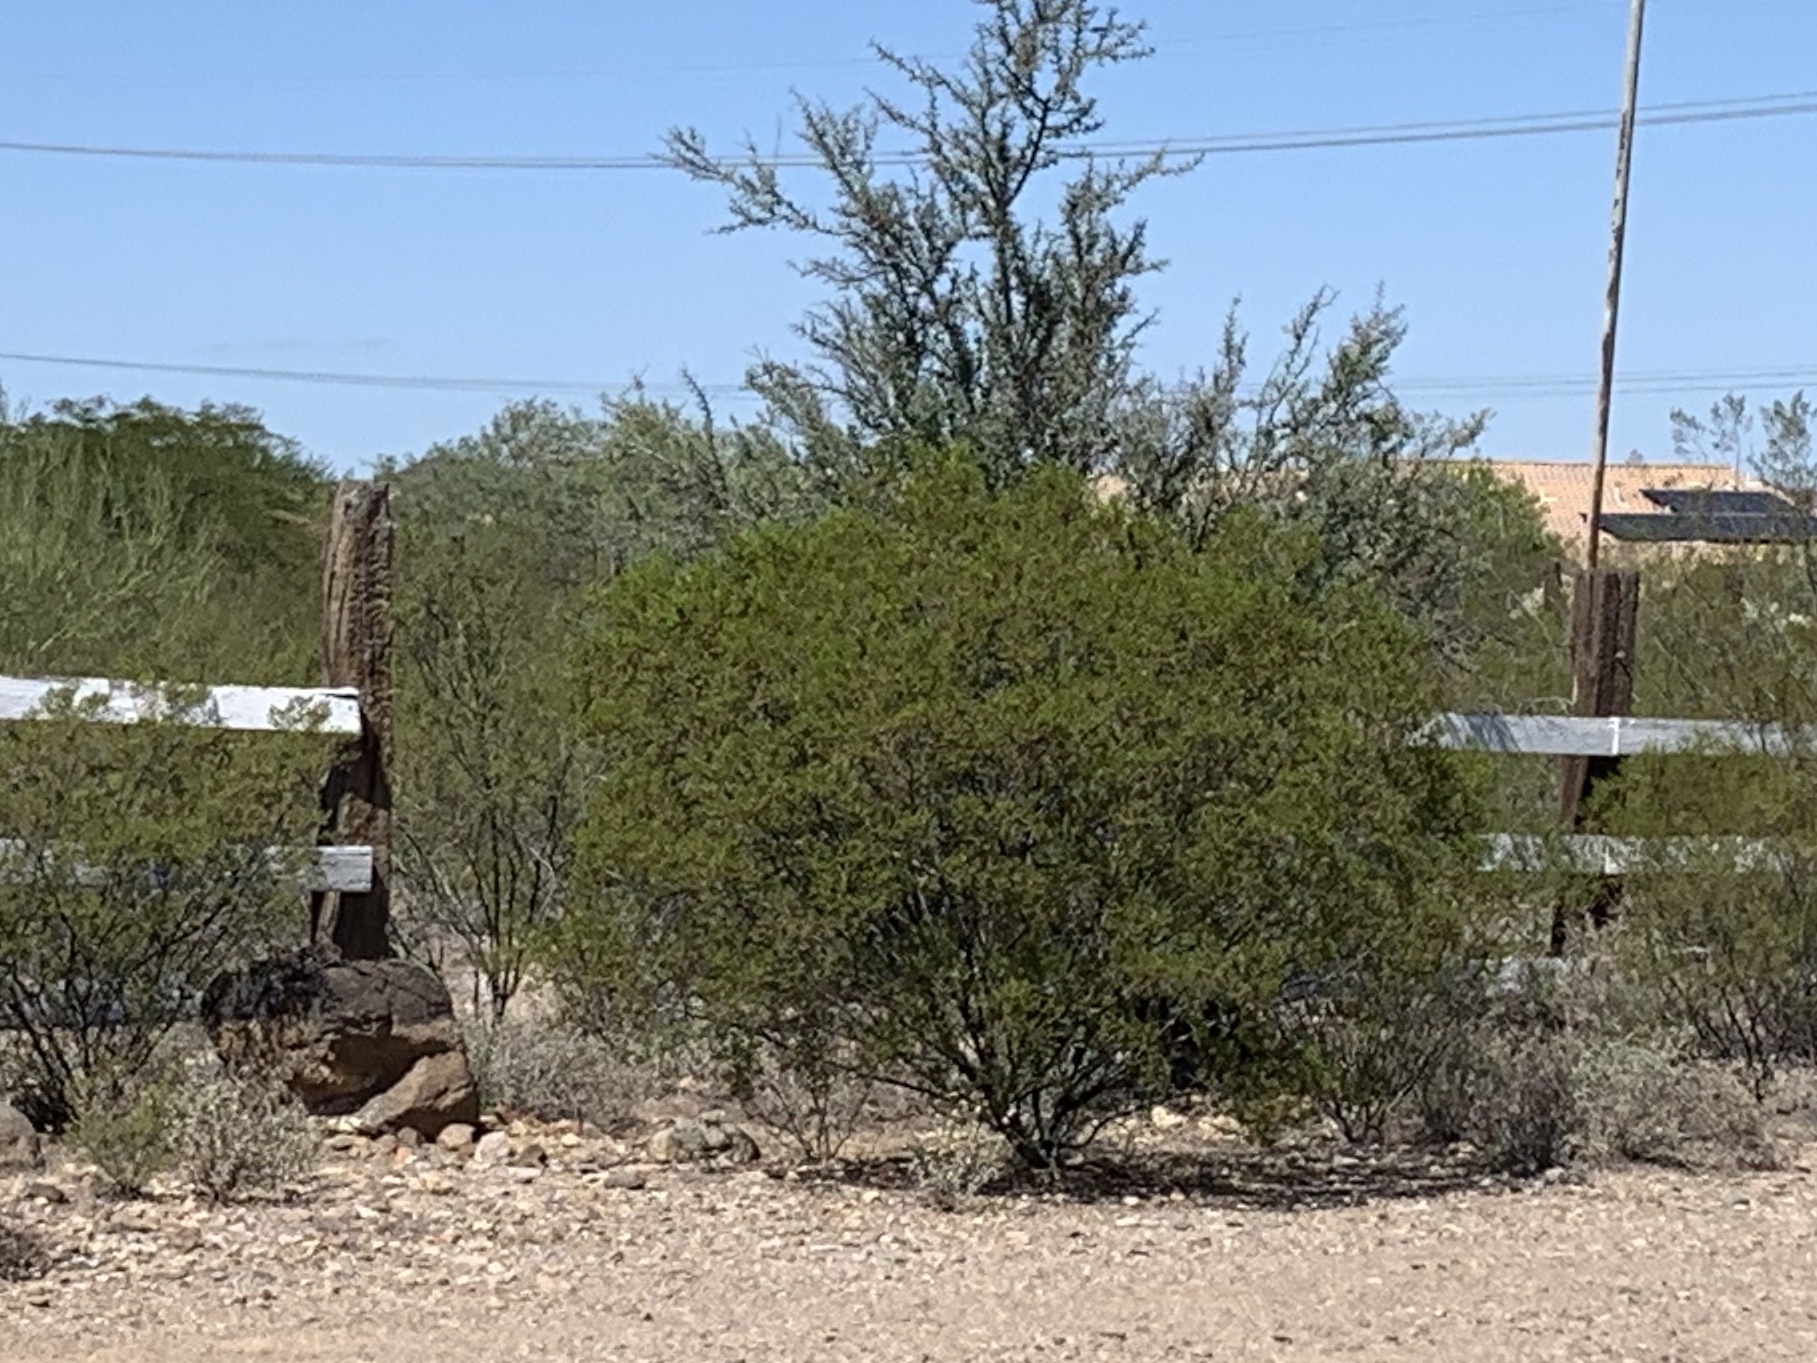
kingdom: Plantae
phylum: Tracheophyta
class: Magnoliopsida
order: Zygophyllales
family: Zygophyllaceae
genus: Larrea
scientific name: Larrea tridentata
